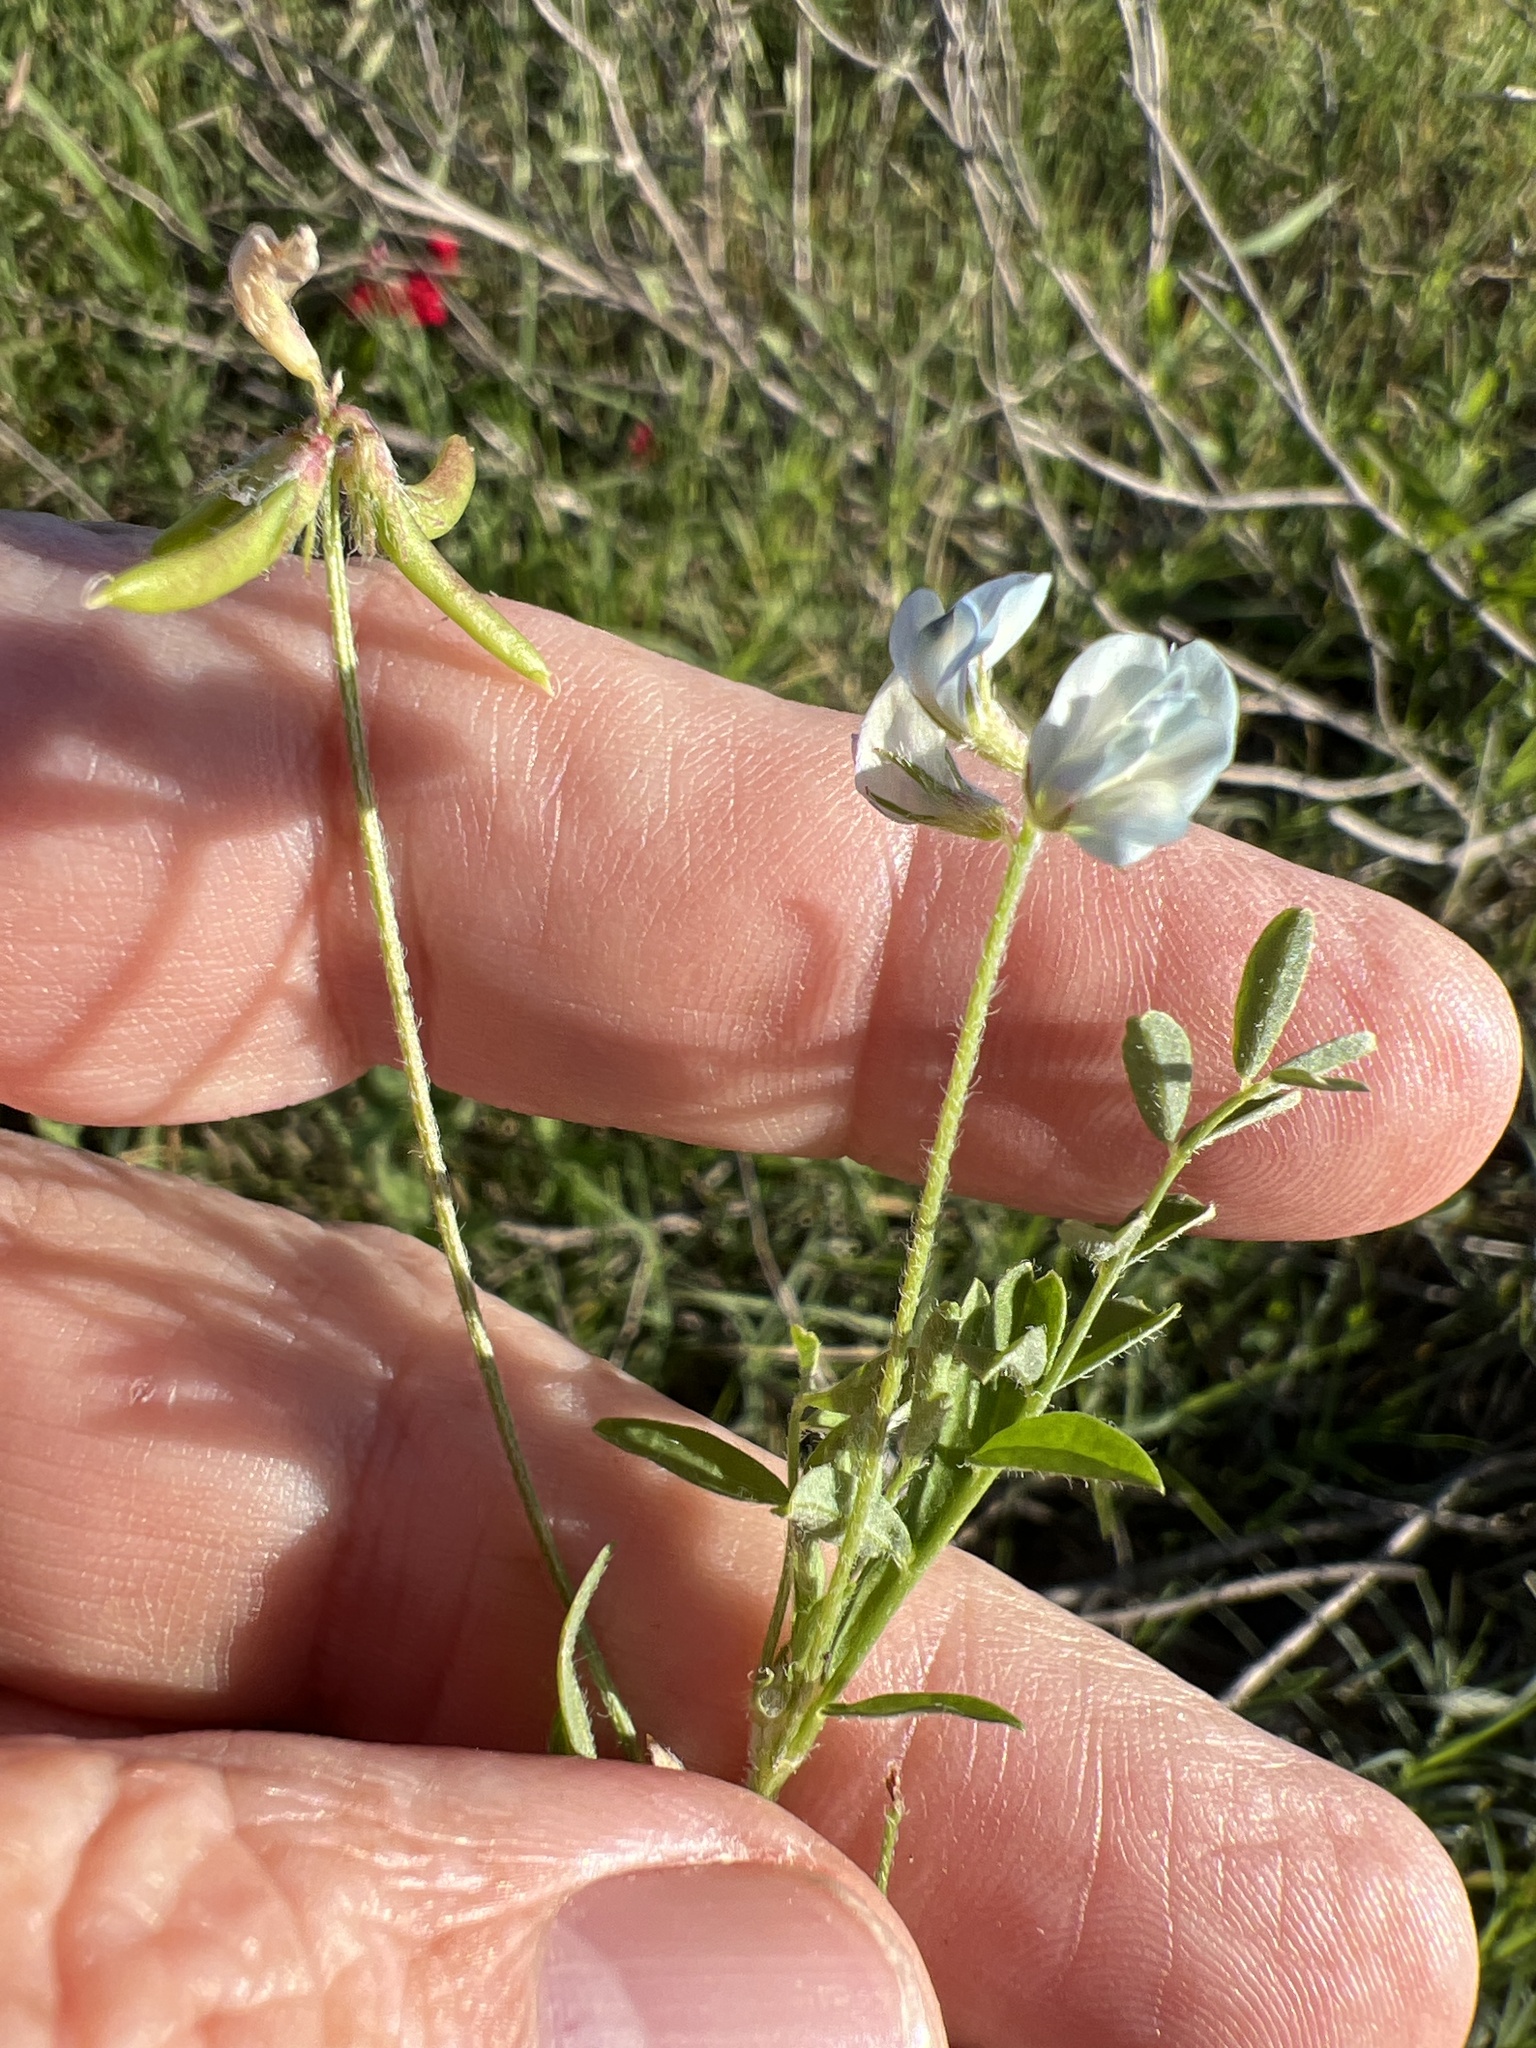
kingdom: Plantae
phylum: Tracheophyta
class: Magnoliopsida
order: Fabales
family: Fabaceae
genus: Astragalus
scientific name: Astragalus nuttallianus
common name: Smallflowered milkvetch
